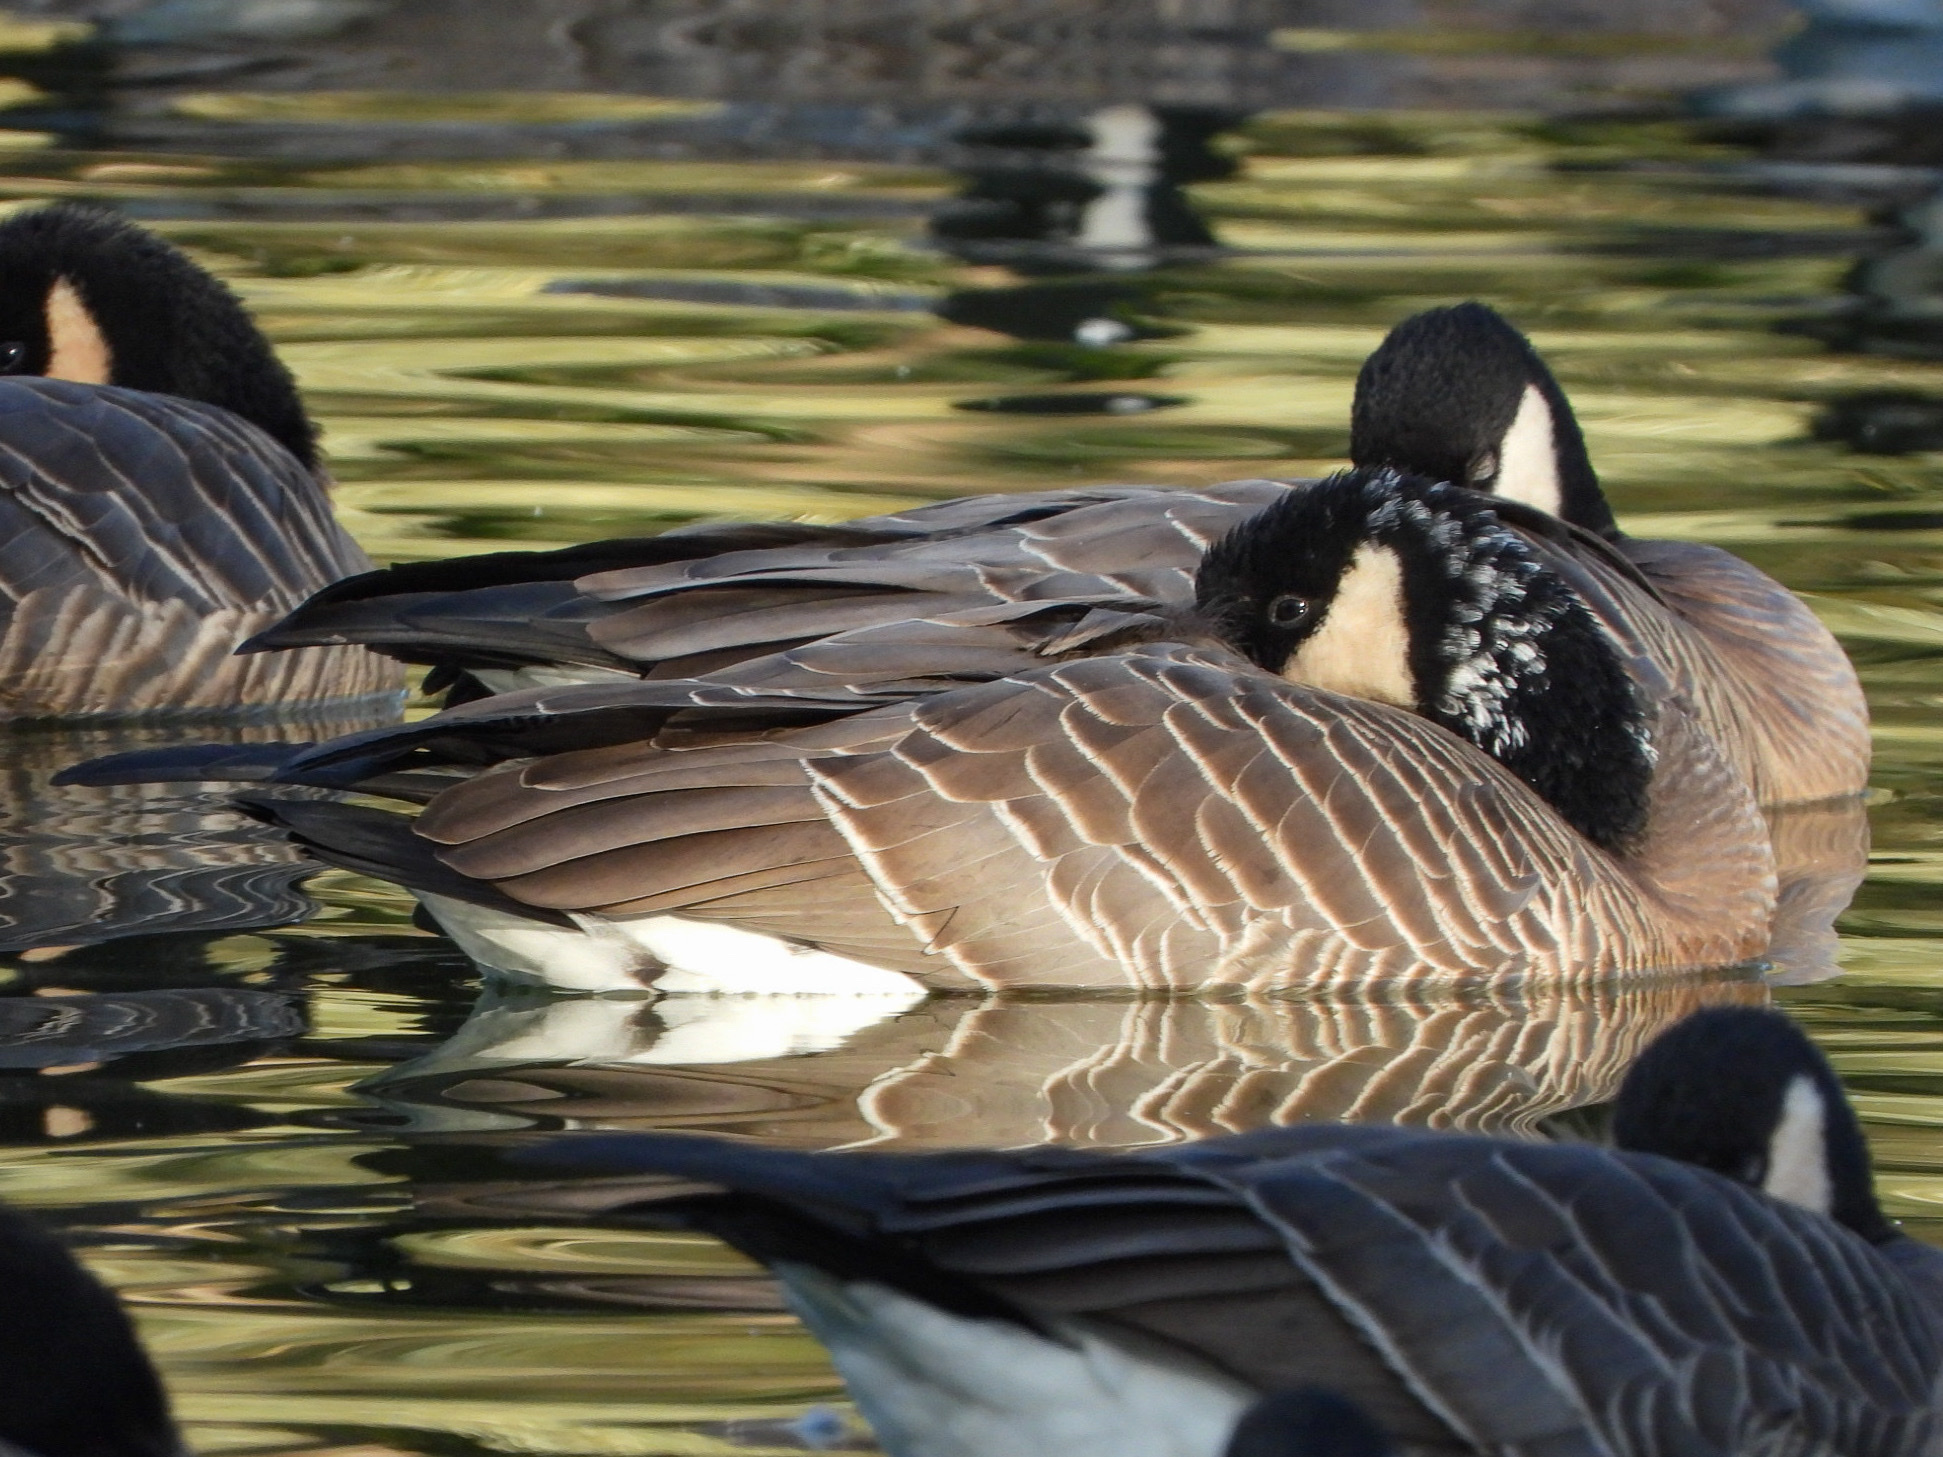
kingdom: Animalia
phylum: Chordata
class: Aves
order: Anseriformes
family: Anatidae
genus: Branta
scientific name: Branta hutchinsii
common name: Cackling goose
